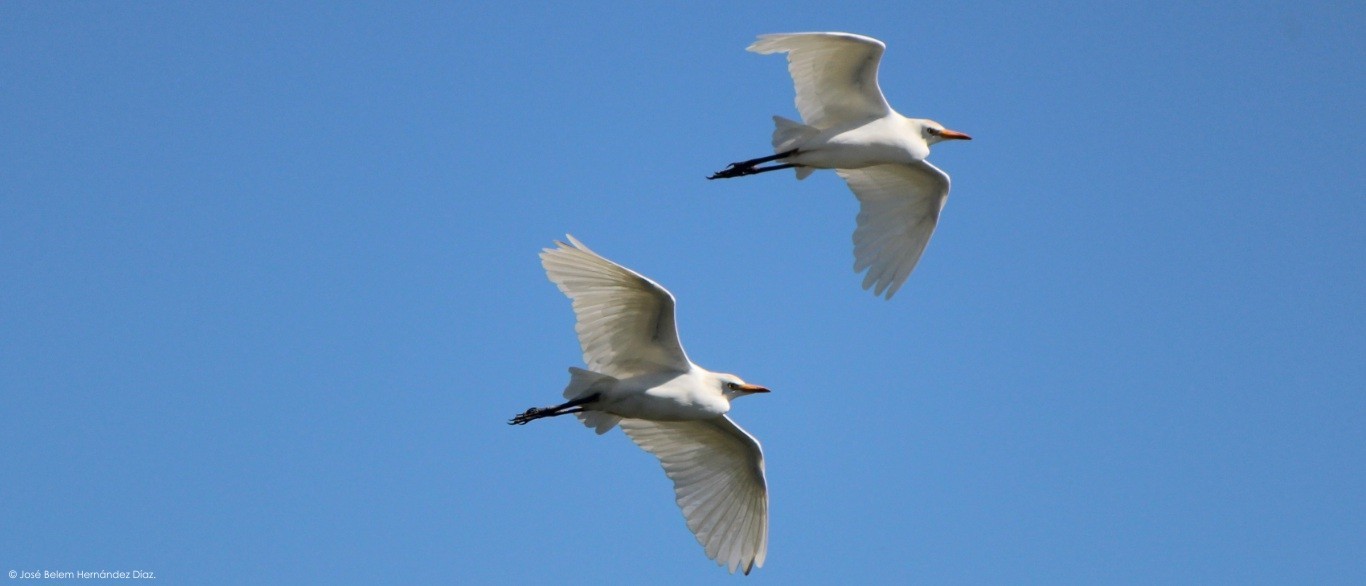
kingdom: Animalia
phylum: Chordata
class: Aves
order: Pelecaniformes
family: Ardeidae
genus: Bubulcus
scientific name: Bubulcus ibis
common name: Cattle egret
